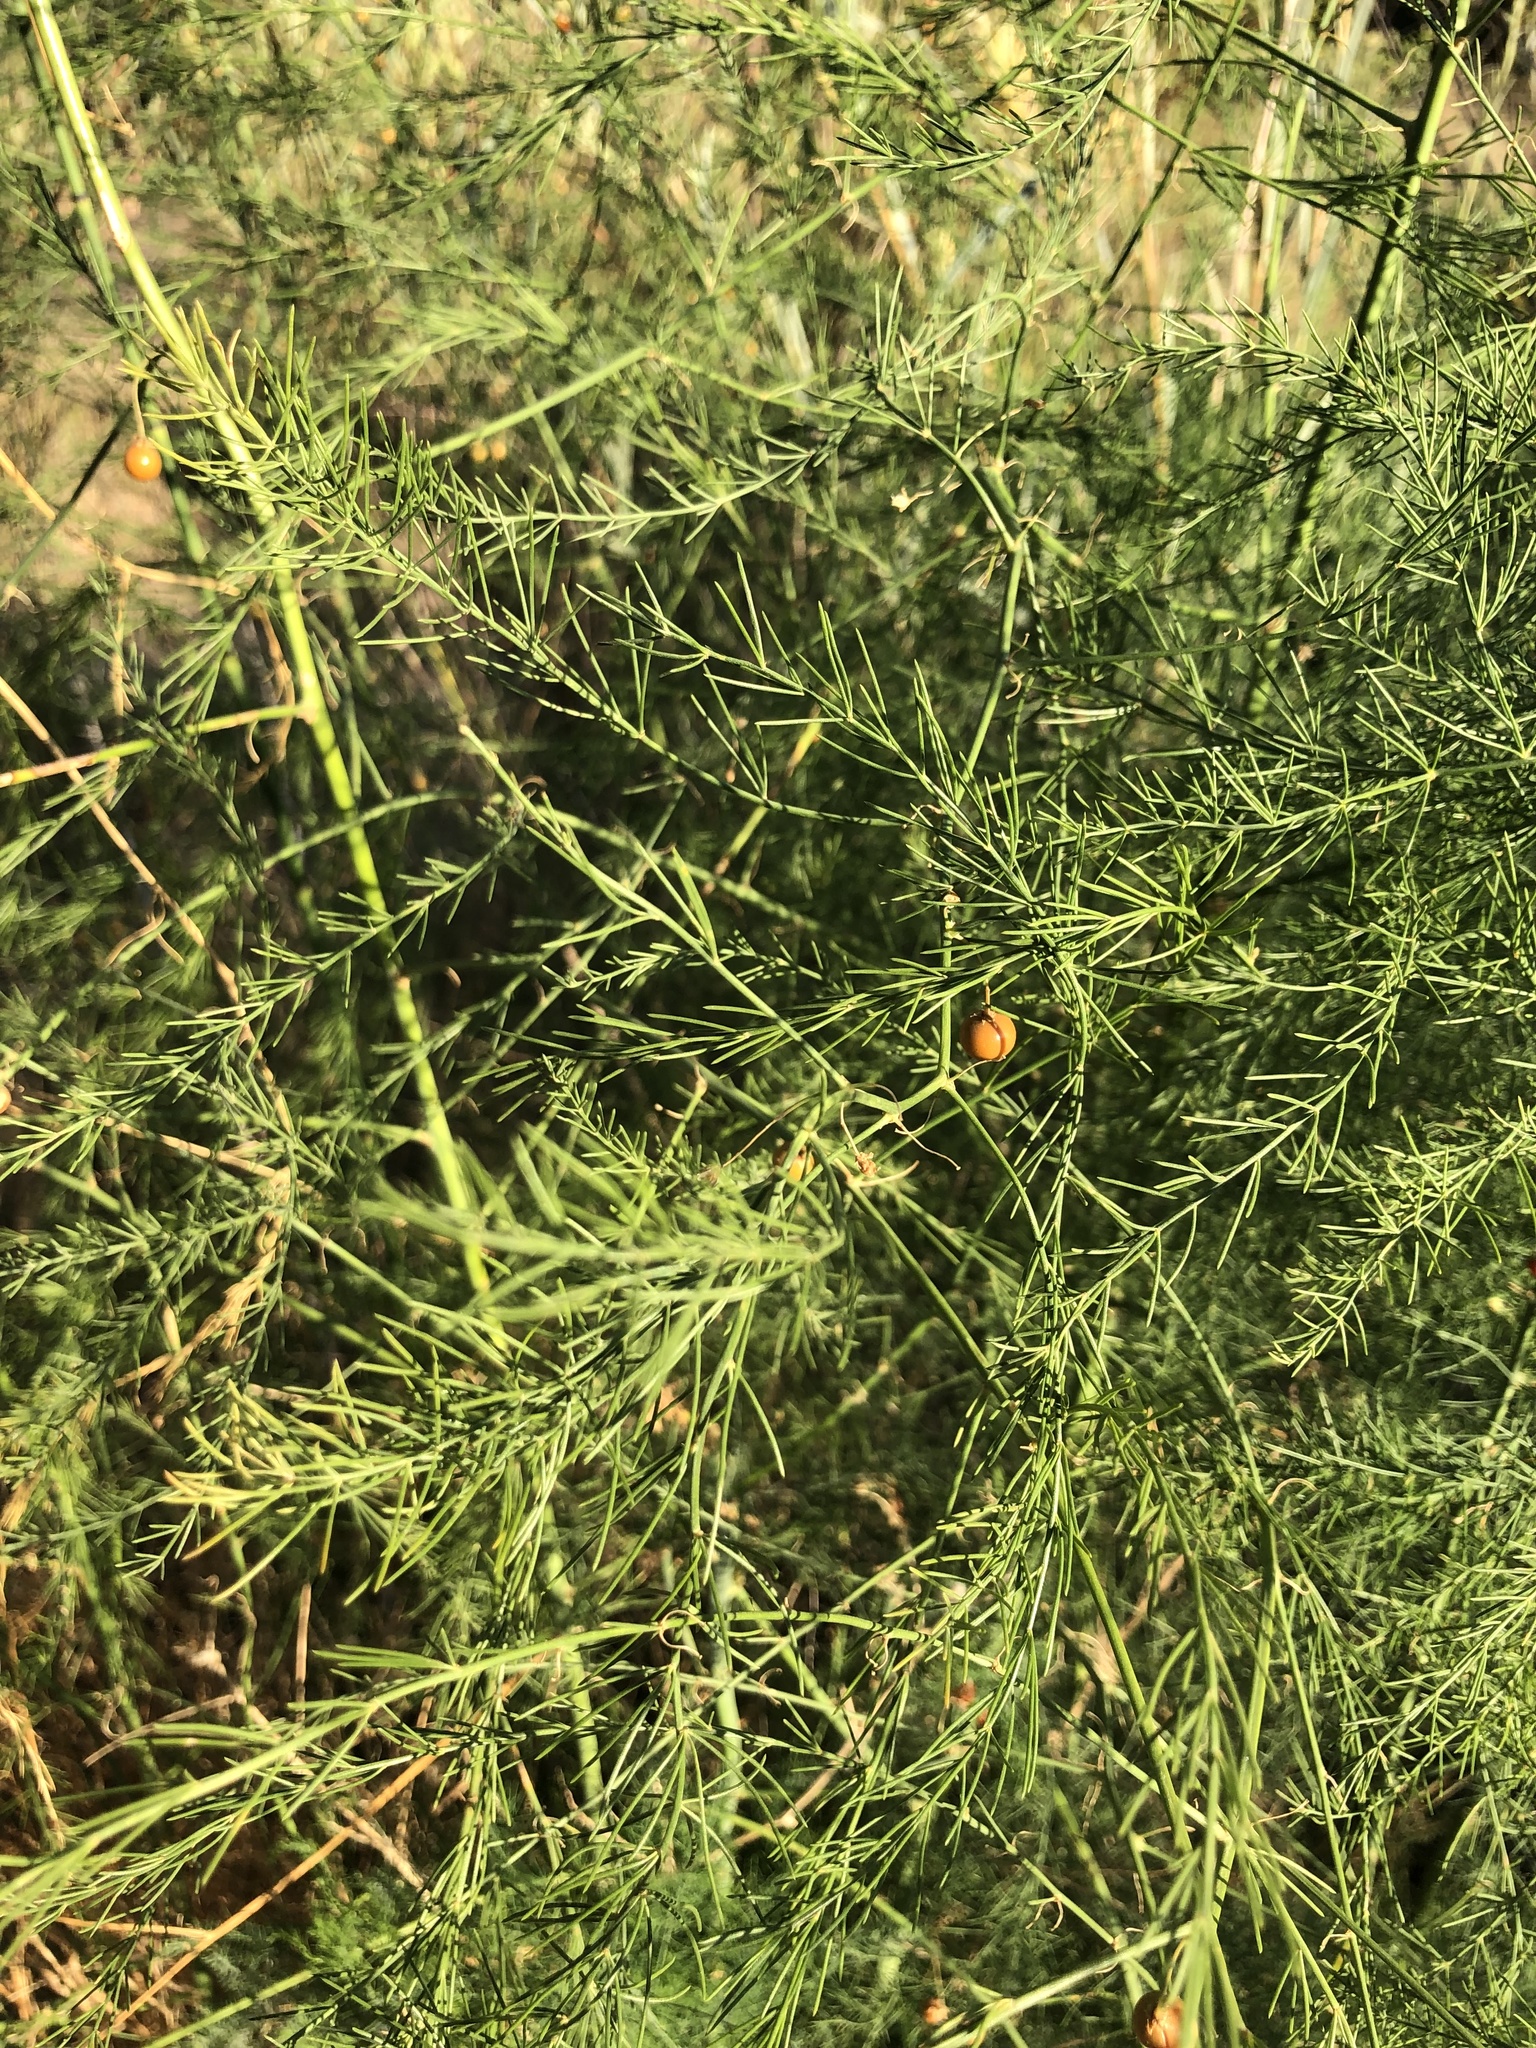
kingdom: Plantae
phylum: Tracheophyta
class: Liliopsida
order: Asparagales
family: Asparagaceae
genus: Asparagus
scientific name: Asparagus officinalis
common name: Garden asparagus
